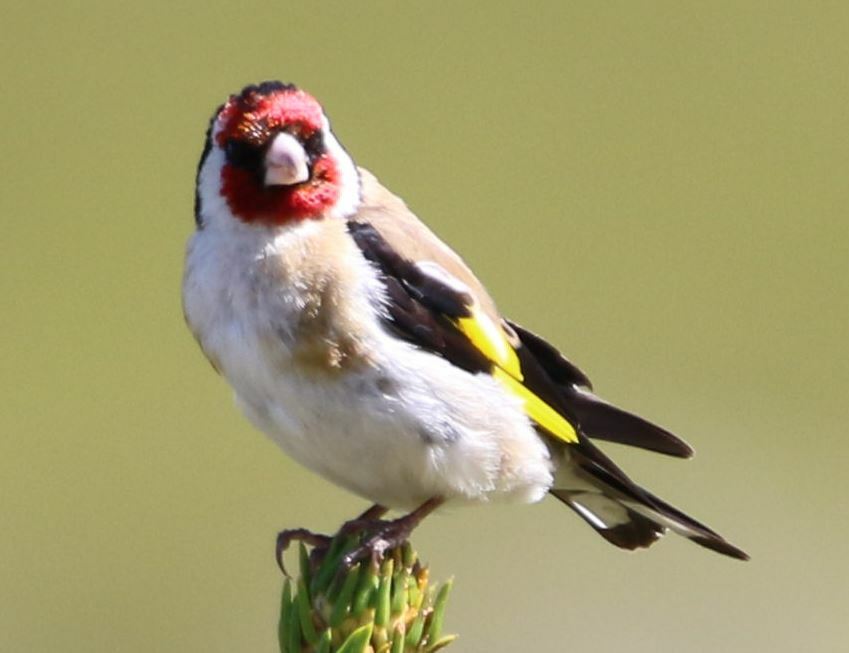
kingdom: Animalia
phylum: Chordata
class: Aves
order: Passeriformes
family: Fringillidae
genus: Carduelis
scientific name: Carduelis carduelis
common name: European goldfinch
